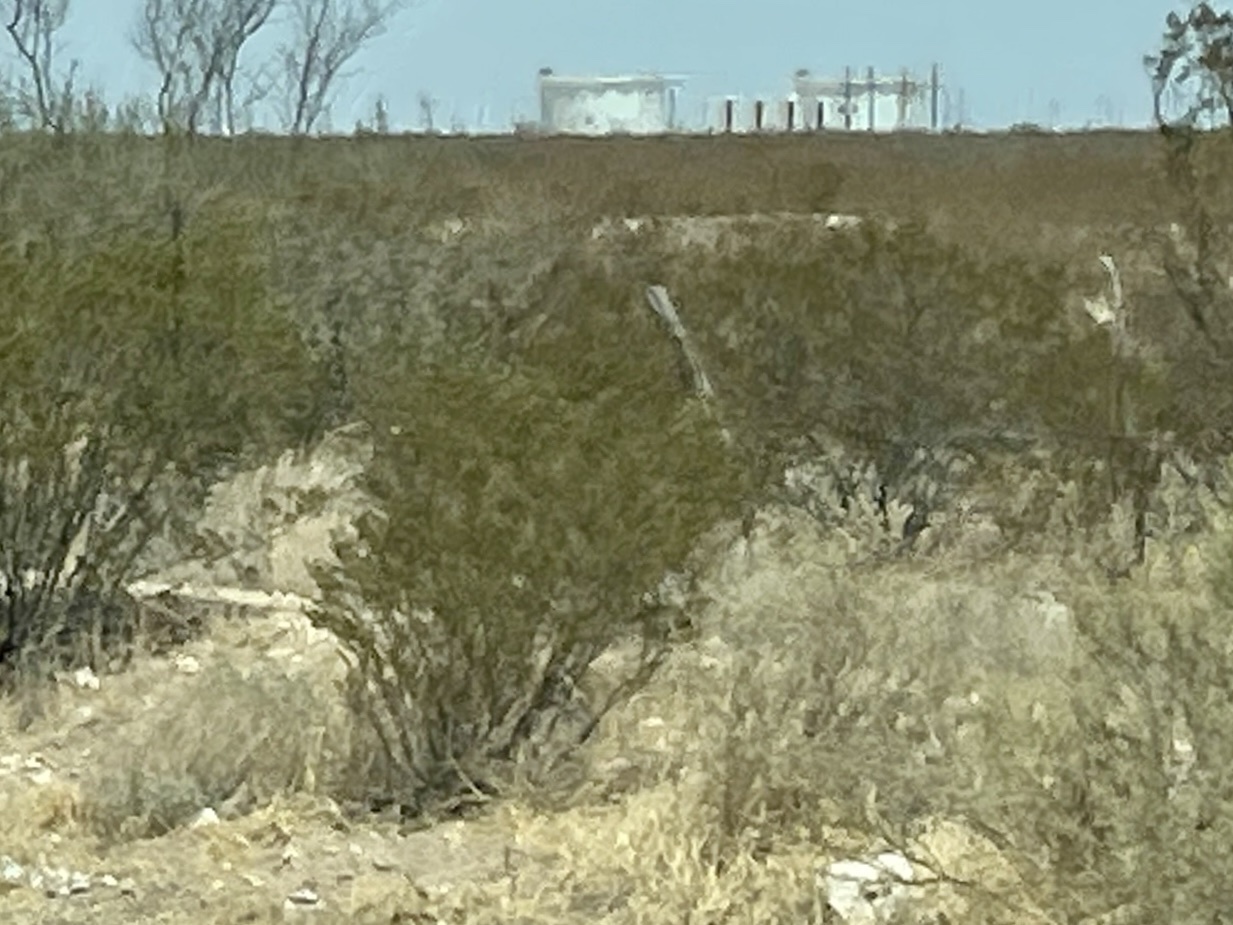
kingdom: Plantae
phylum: Tracheophyta
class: Magnoliopsida
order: Zygophyllales
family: Zygophyllaceae
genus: Larrea
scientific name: Larrea tridentata
